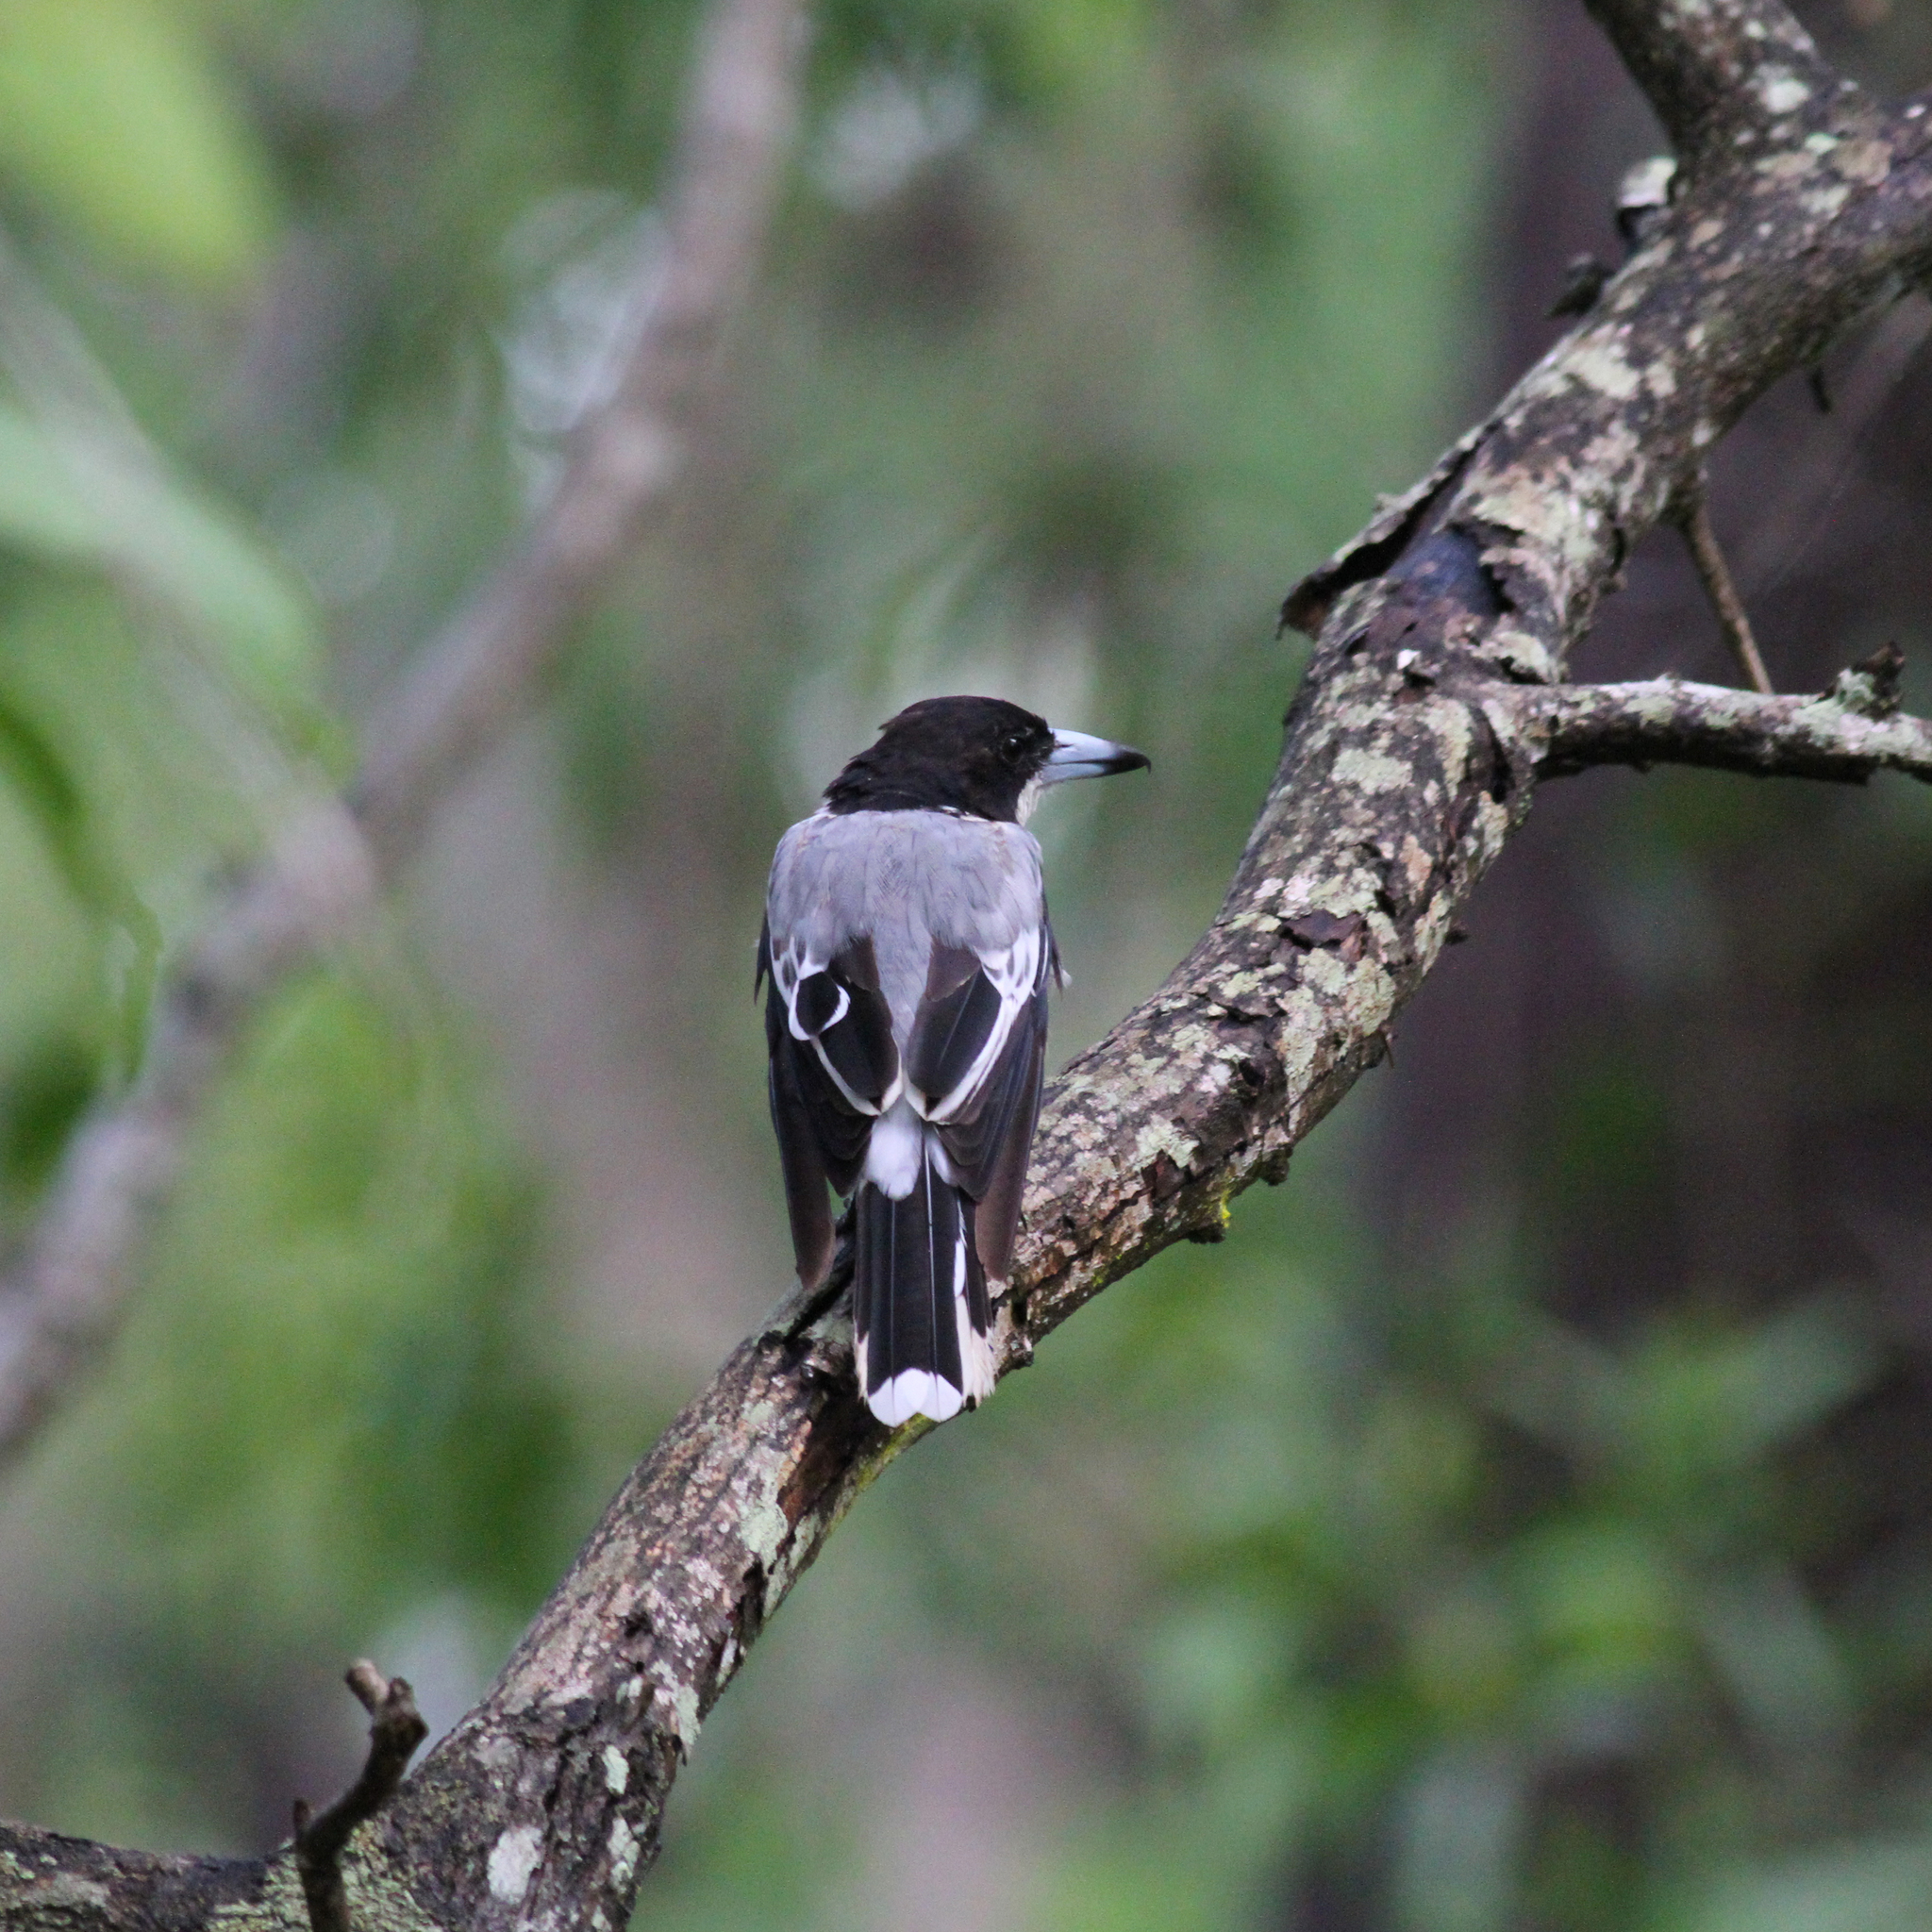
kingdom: Animalia
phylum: Chordata
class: Aves
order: Passeriformes
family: Cracticidae
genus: Cracticus
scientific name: Cracticus torquatus
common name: Grey butcherbird
